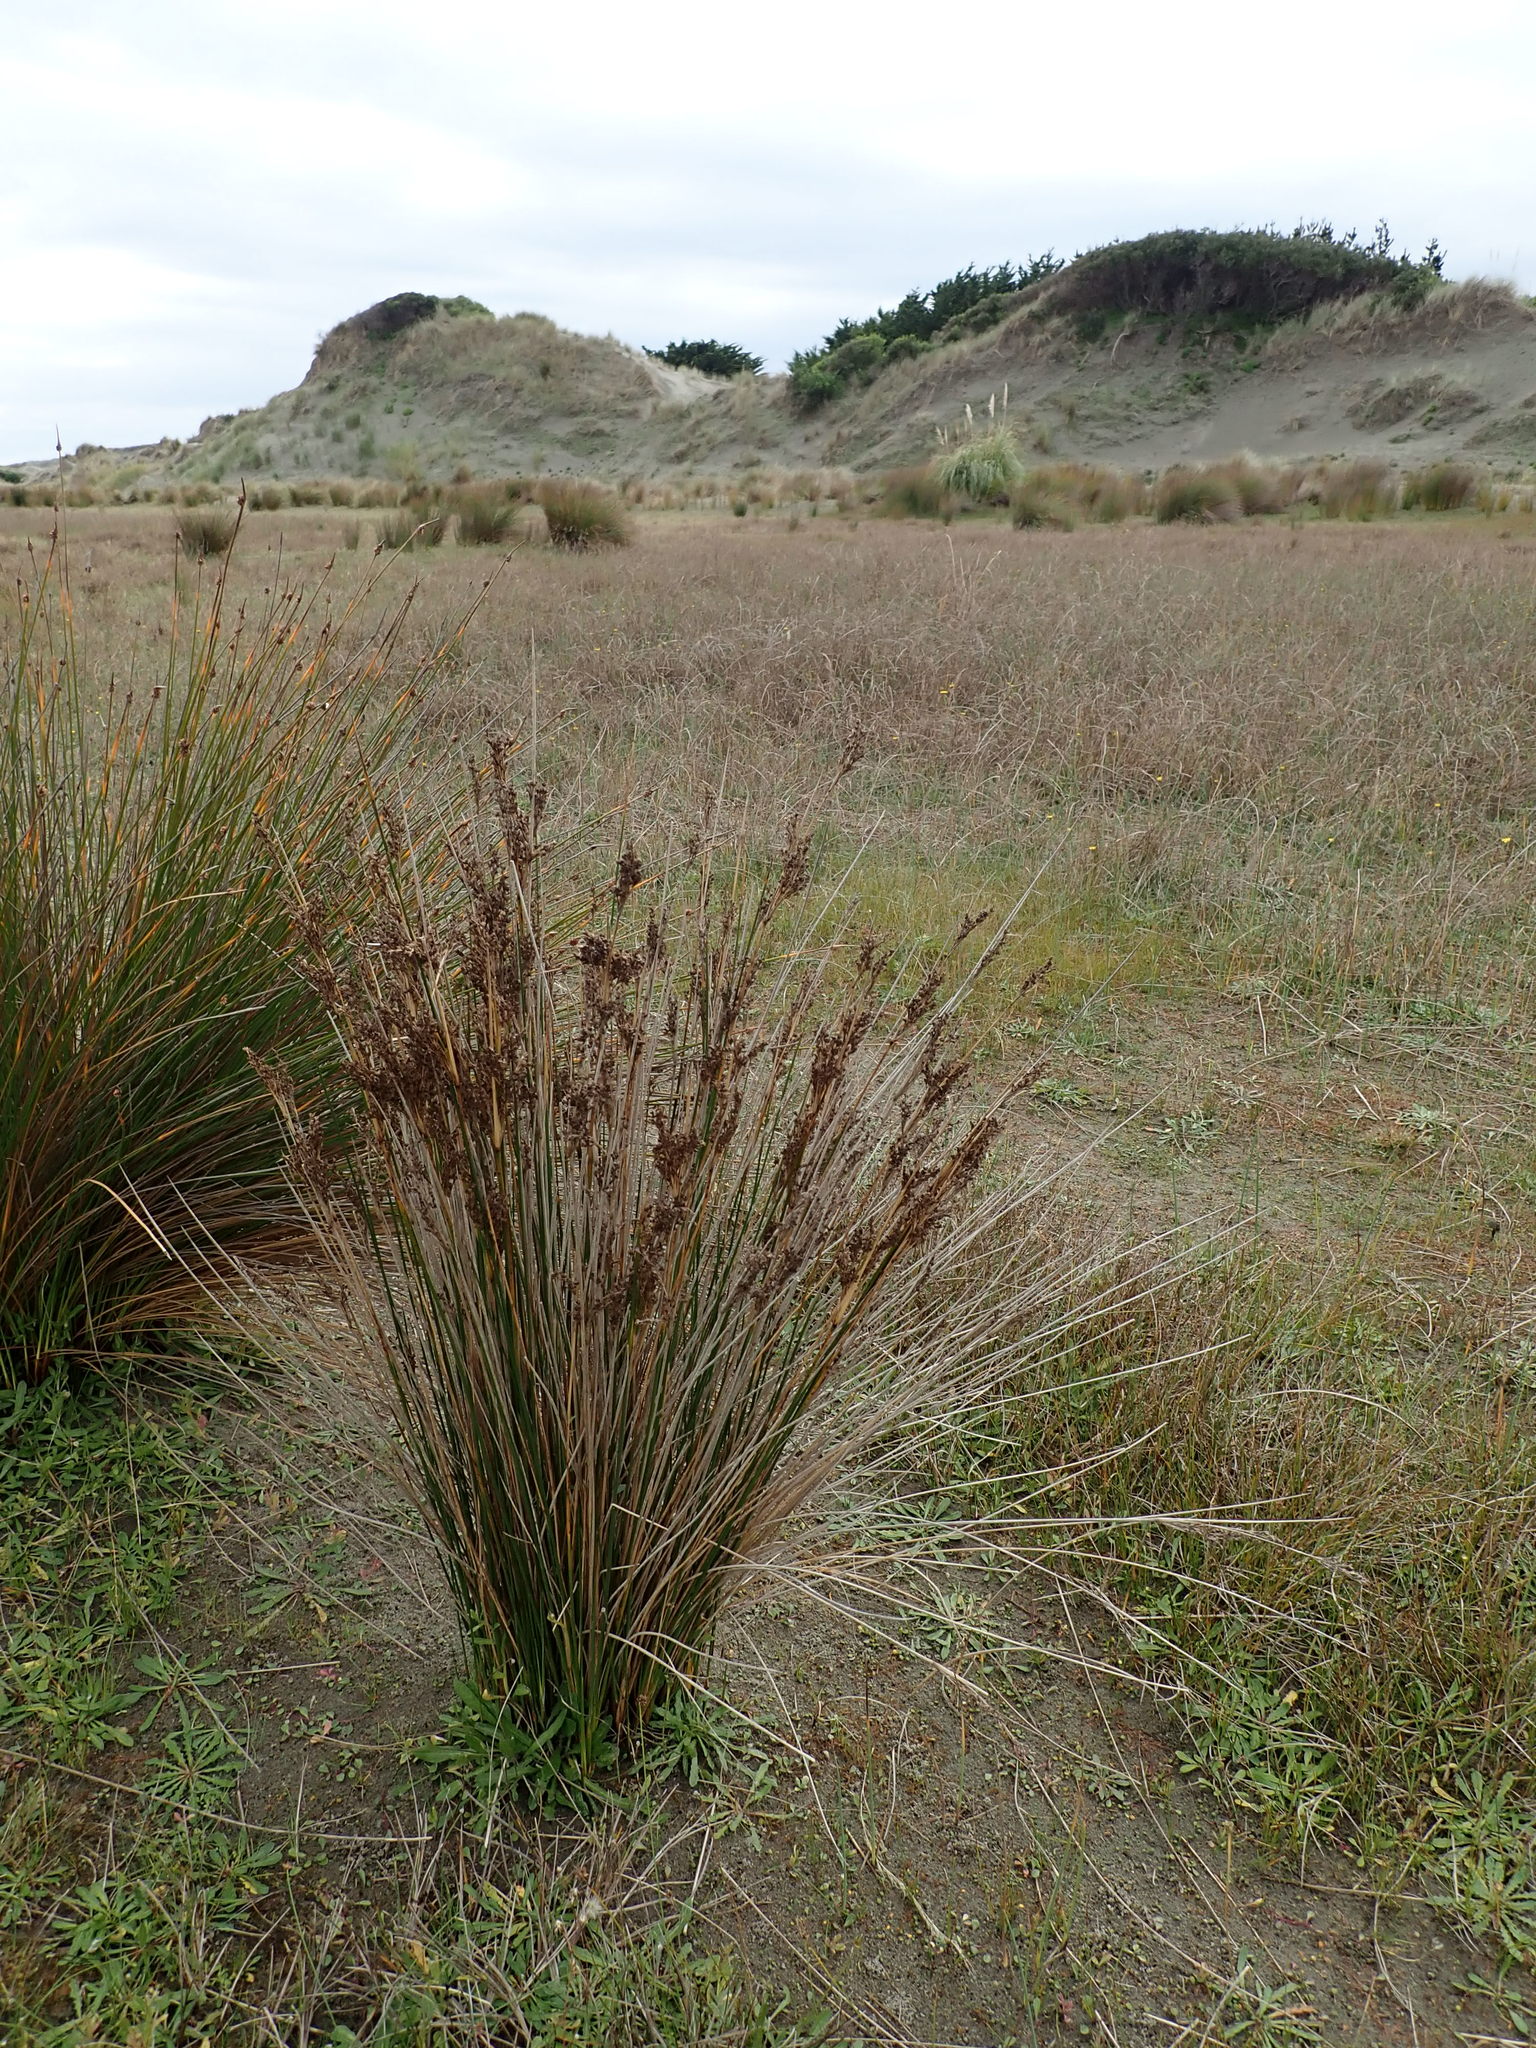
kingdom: Plantae
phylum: Tracheophyta
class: Liliopsida
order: Poales
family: Juncaceae
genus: Juncus
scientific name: Juncus kraussii
